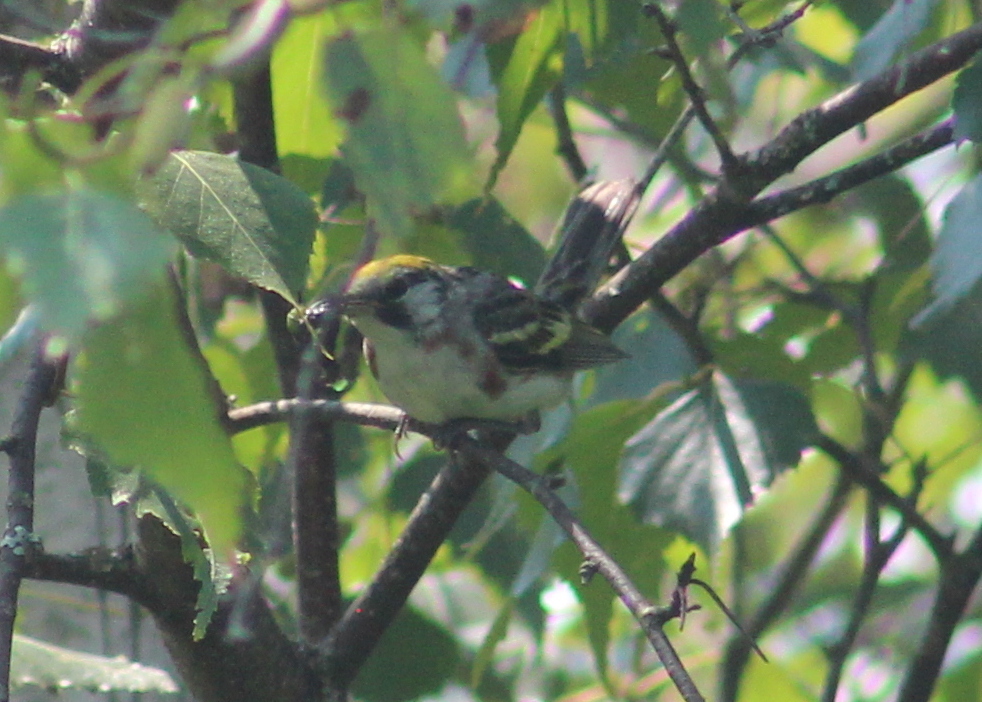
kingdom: Animalia
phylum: Chordata
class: Aves
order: Passeriformes
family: Parulidae
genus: Setophaga
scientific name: Setophaga pensylvanica
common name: Chestnut-sided warbler
